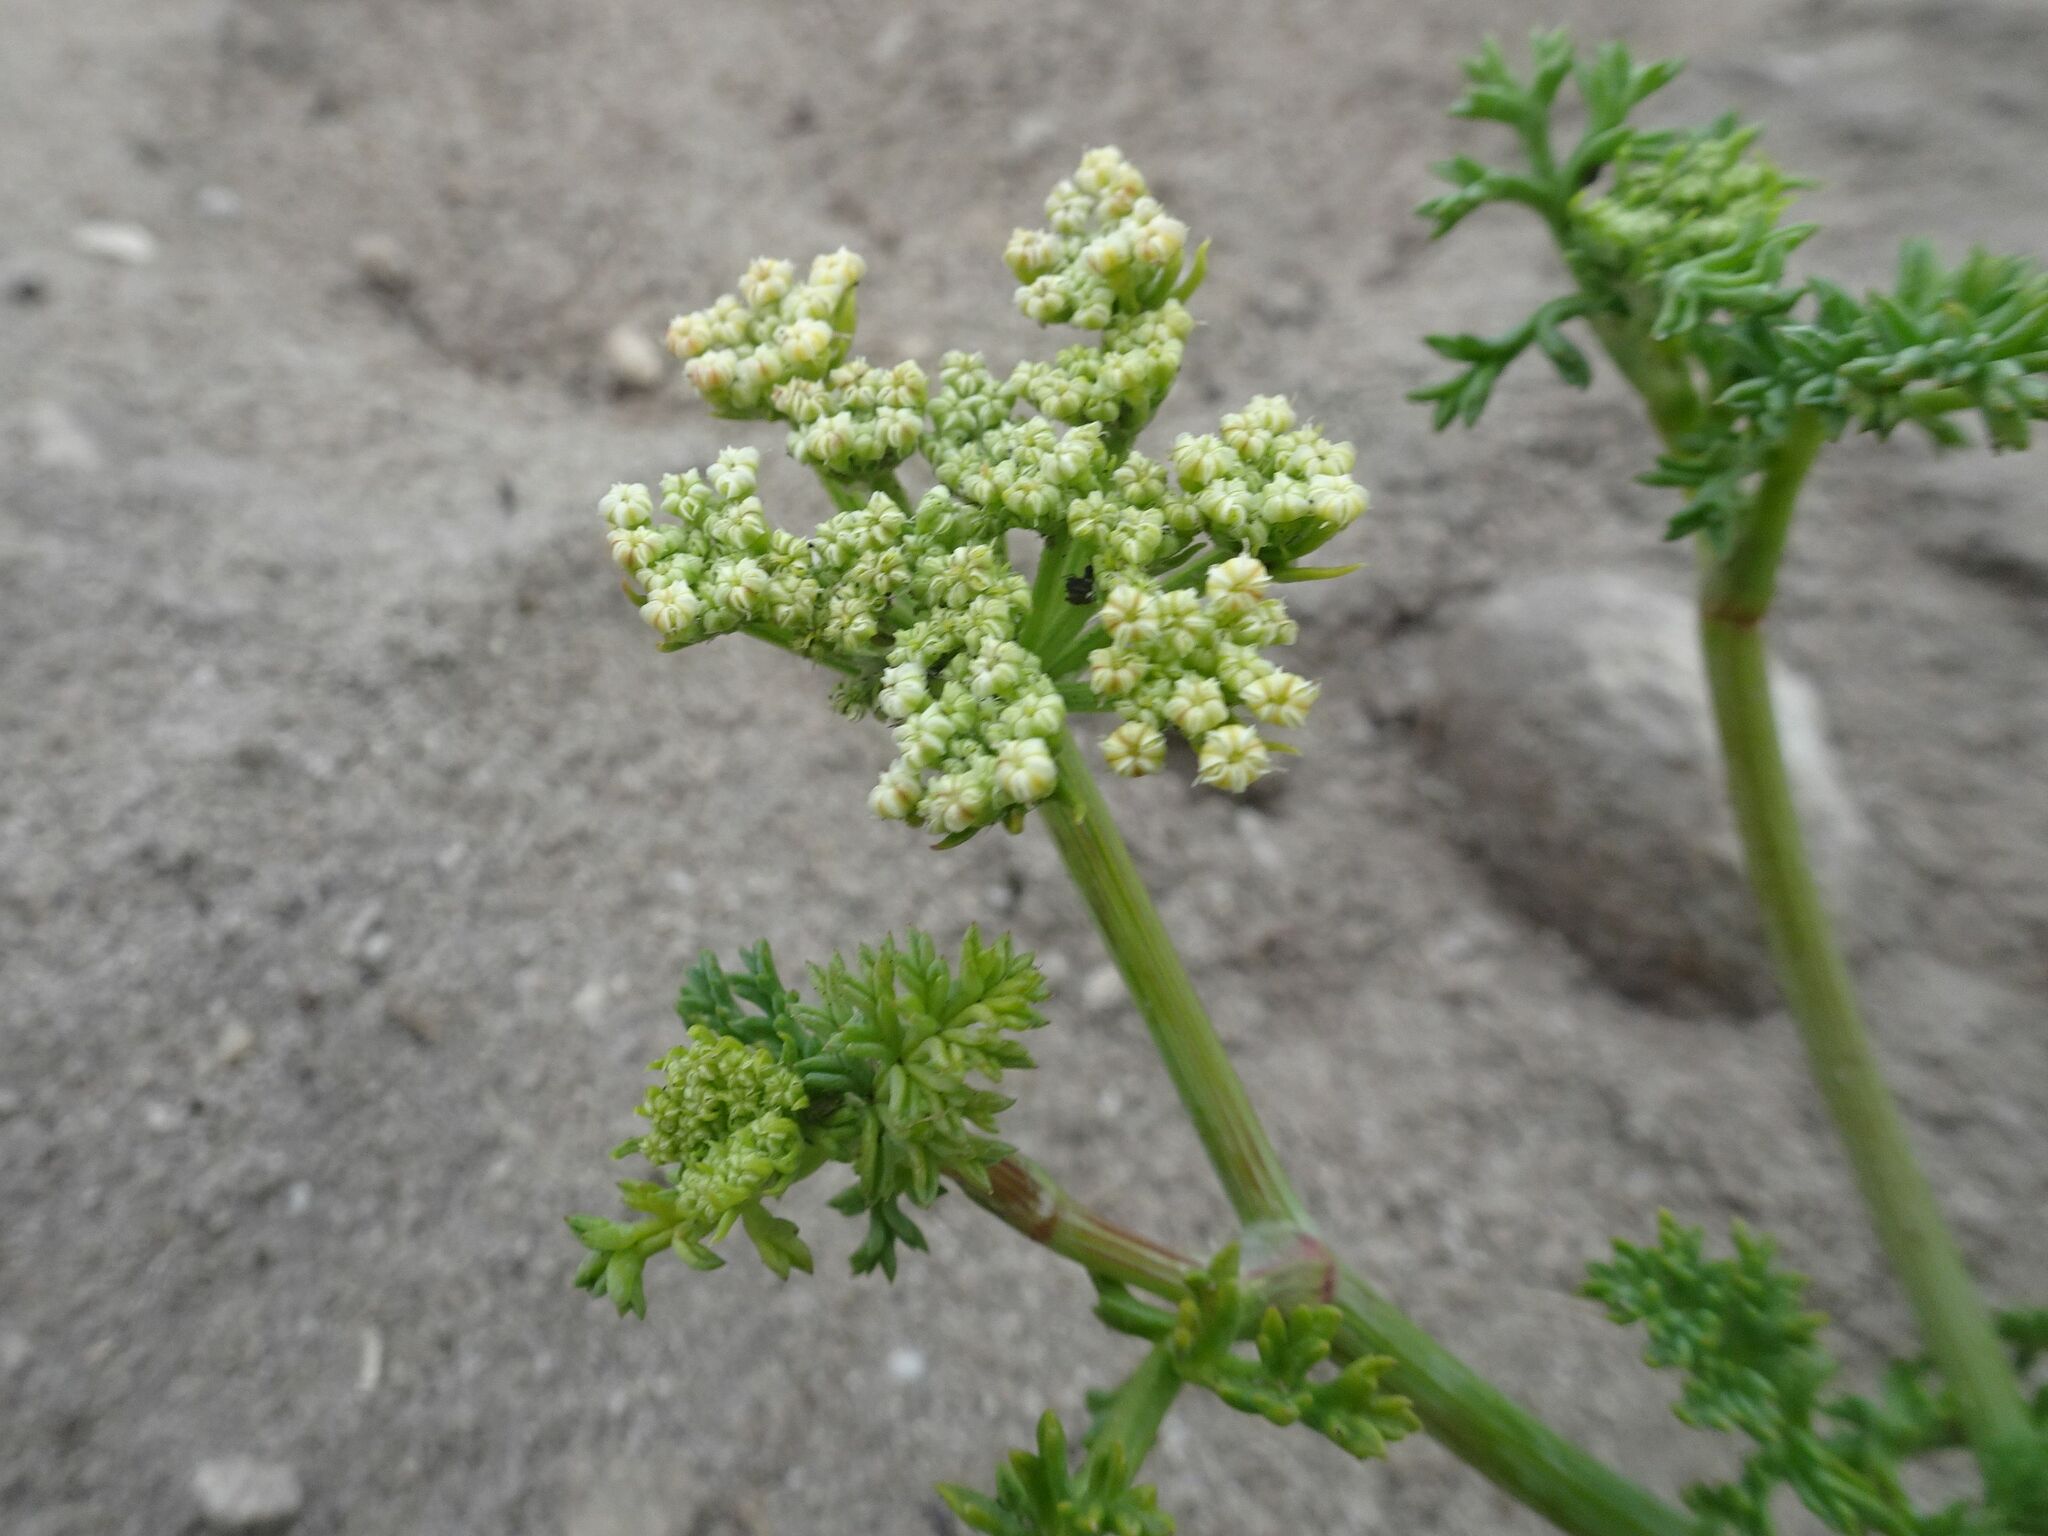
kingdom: Plantae
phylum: Tracheophyta
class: Magnoliopsida
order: Apiales
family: Apiaceae
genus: Dasispermum
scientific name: Dasispermum suffruticosum
